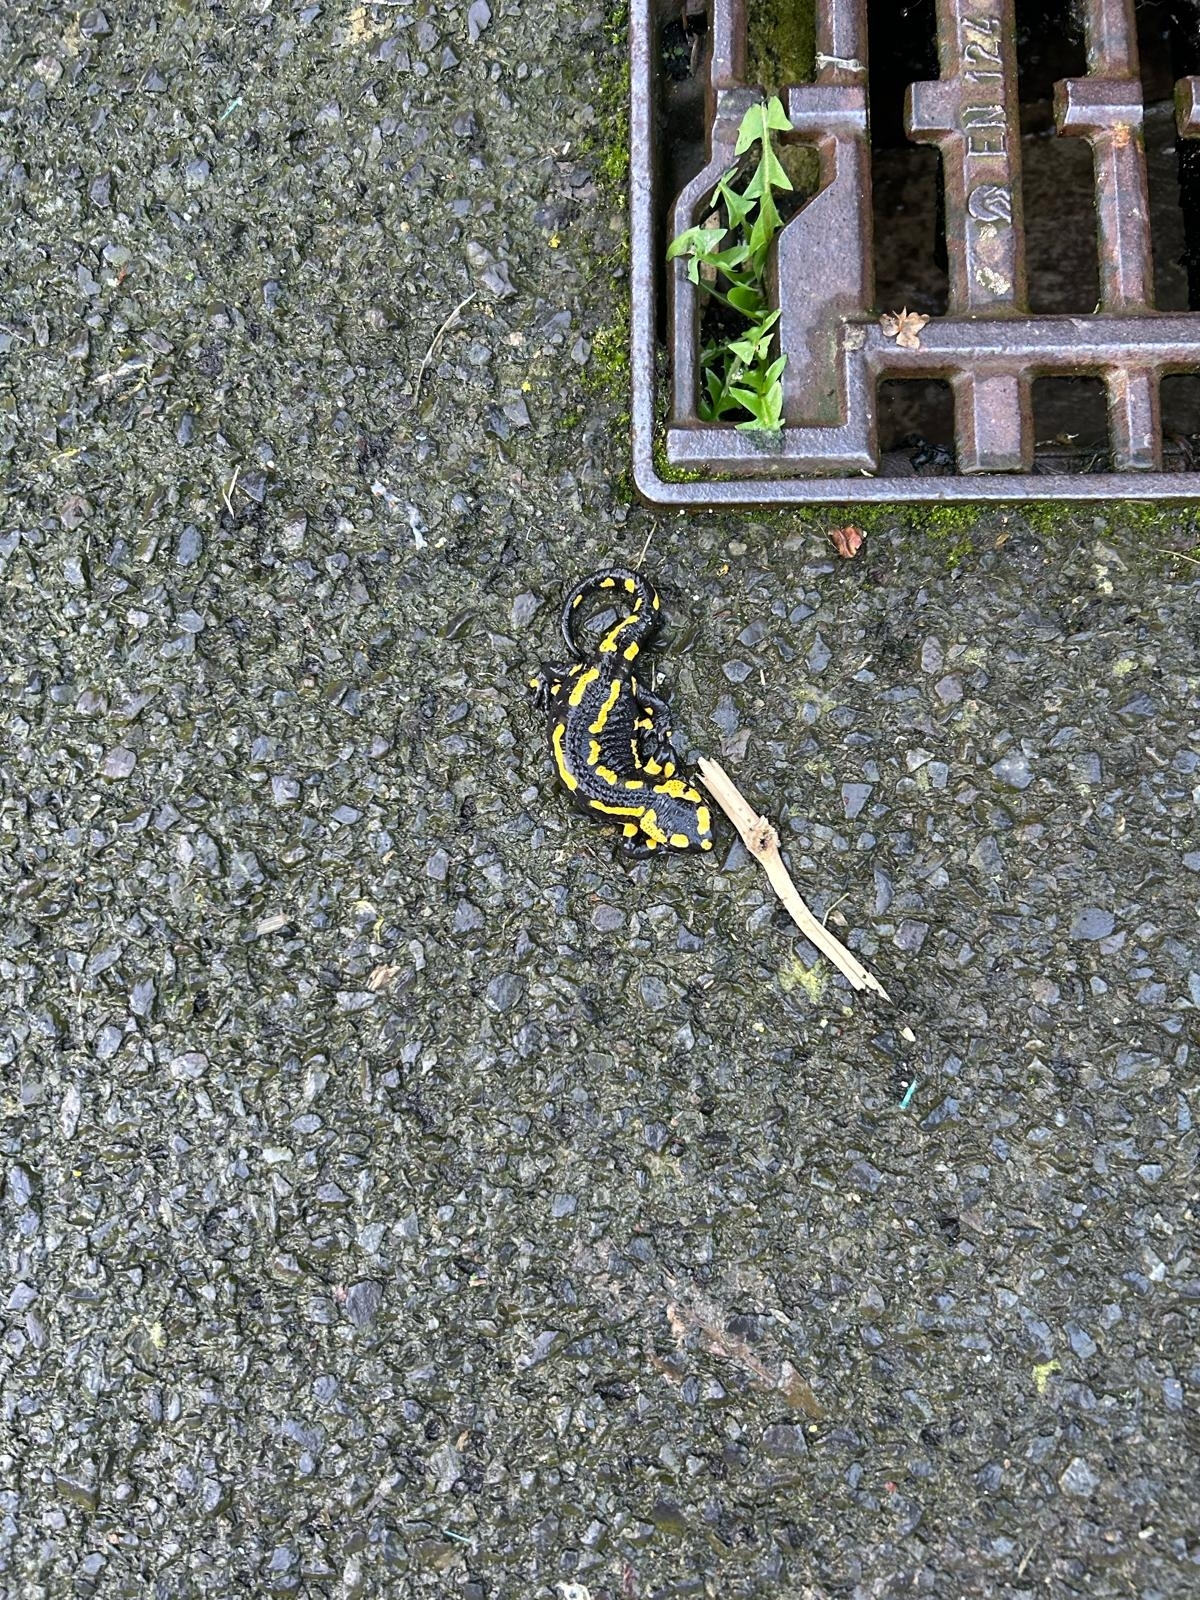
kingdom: Animalia
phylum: Chordata
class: Amphibia
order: Caudata
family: Salamandridae
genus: Salamandra
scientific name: Salamandra salamandra
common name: Fire salamander
